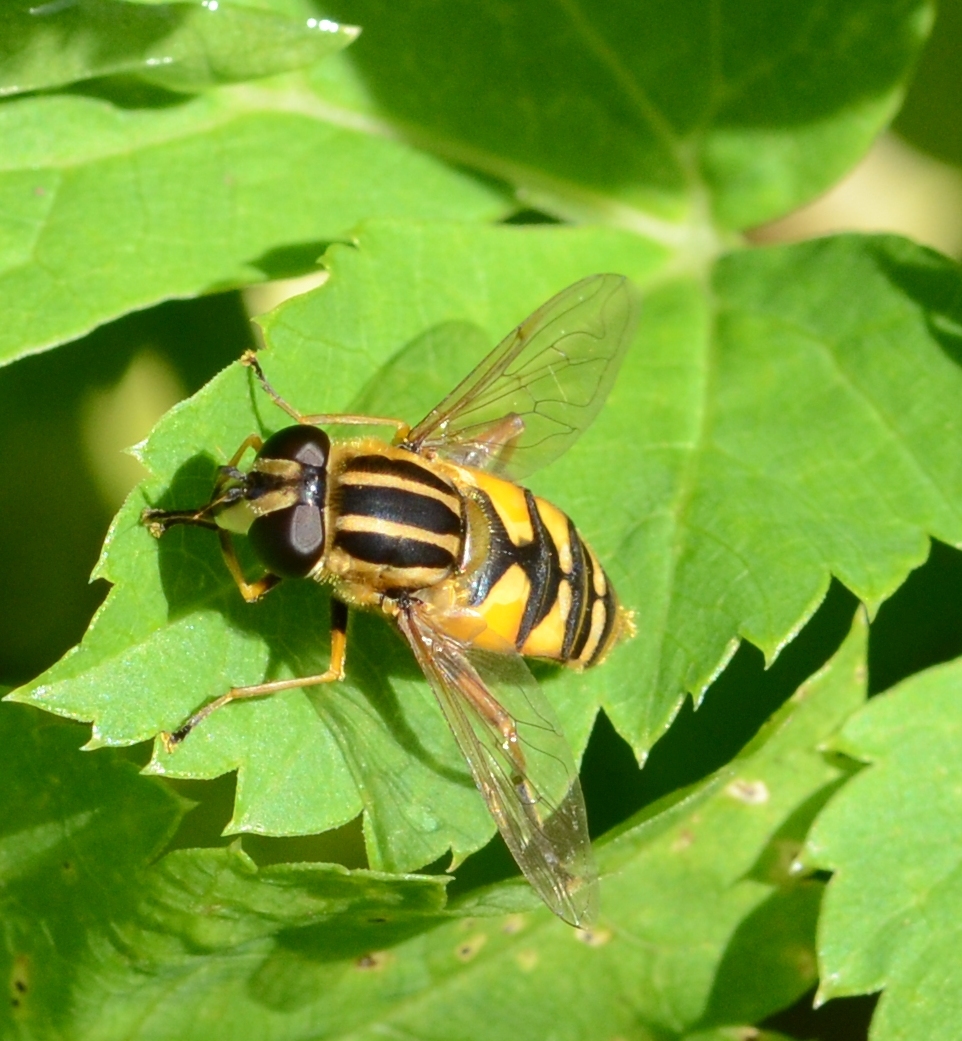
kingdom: Animalia
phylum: Arthropoda
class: Insecta
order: Diptera
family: Syrphidae
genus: Helophilus
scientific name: Helophilus pendulus
